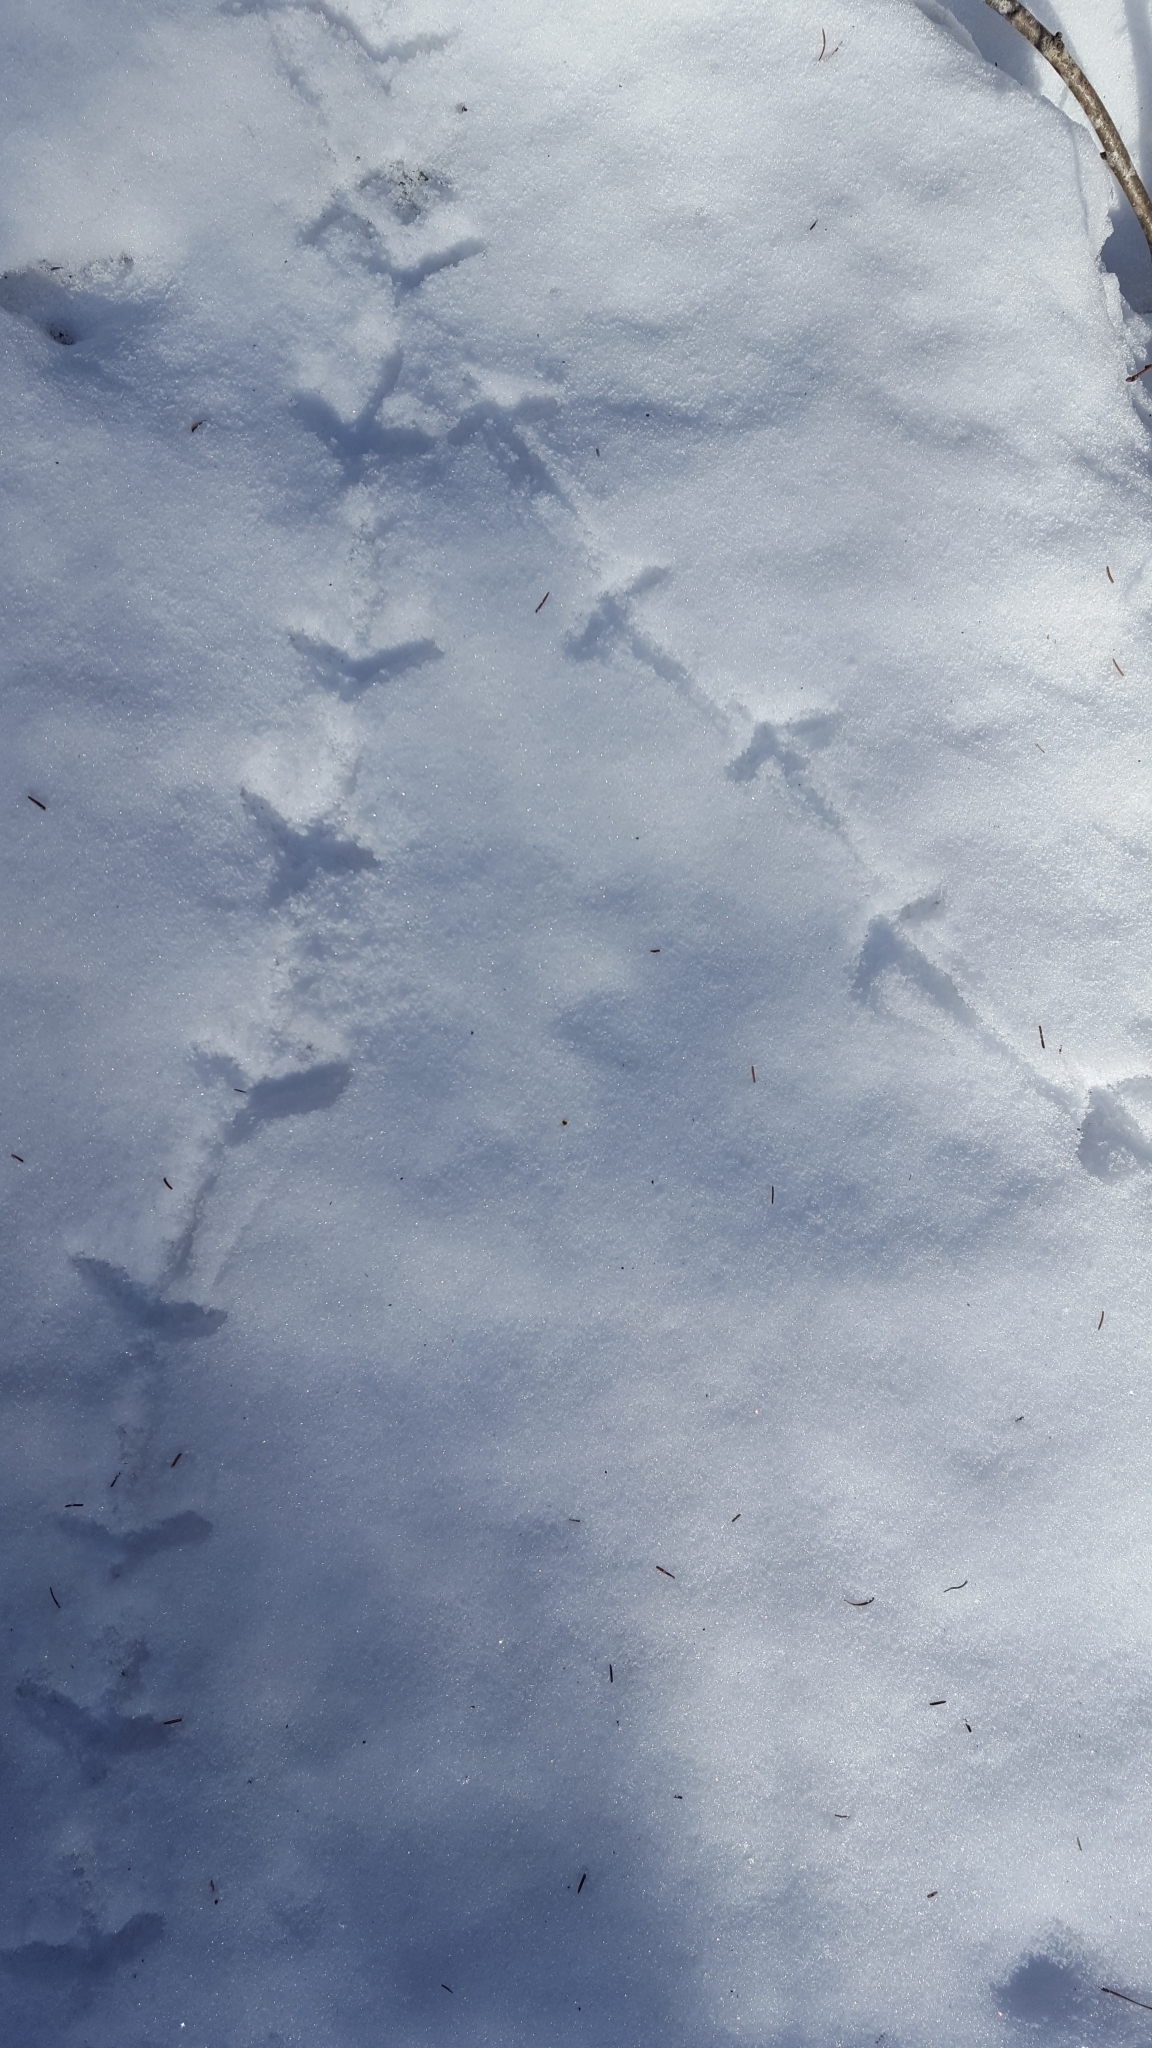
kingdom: Animalia
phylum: Chordata
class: Aves
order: Galliformes
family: Phasianidae
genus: Bonasa
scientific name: Bonasa umbellus
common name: Ruffed grouse
